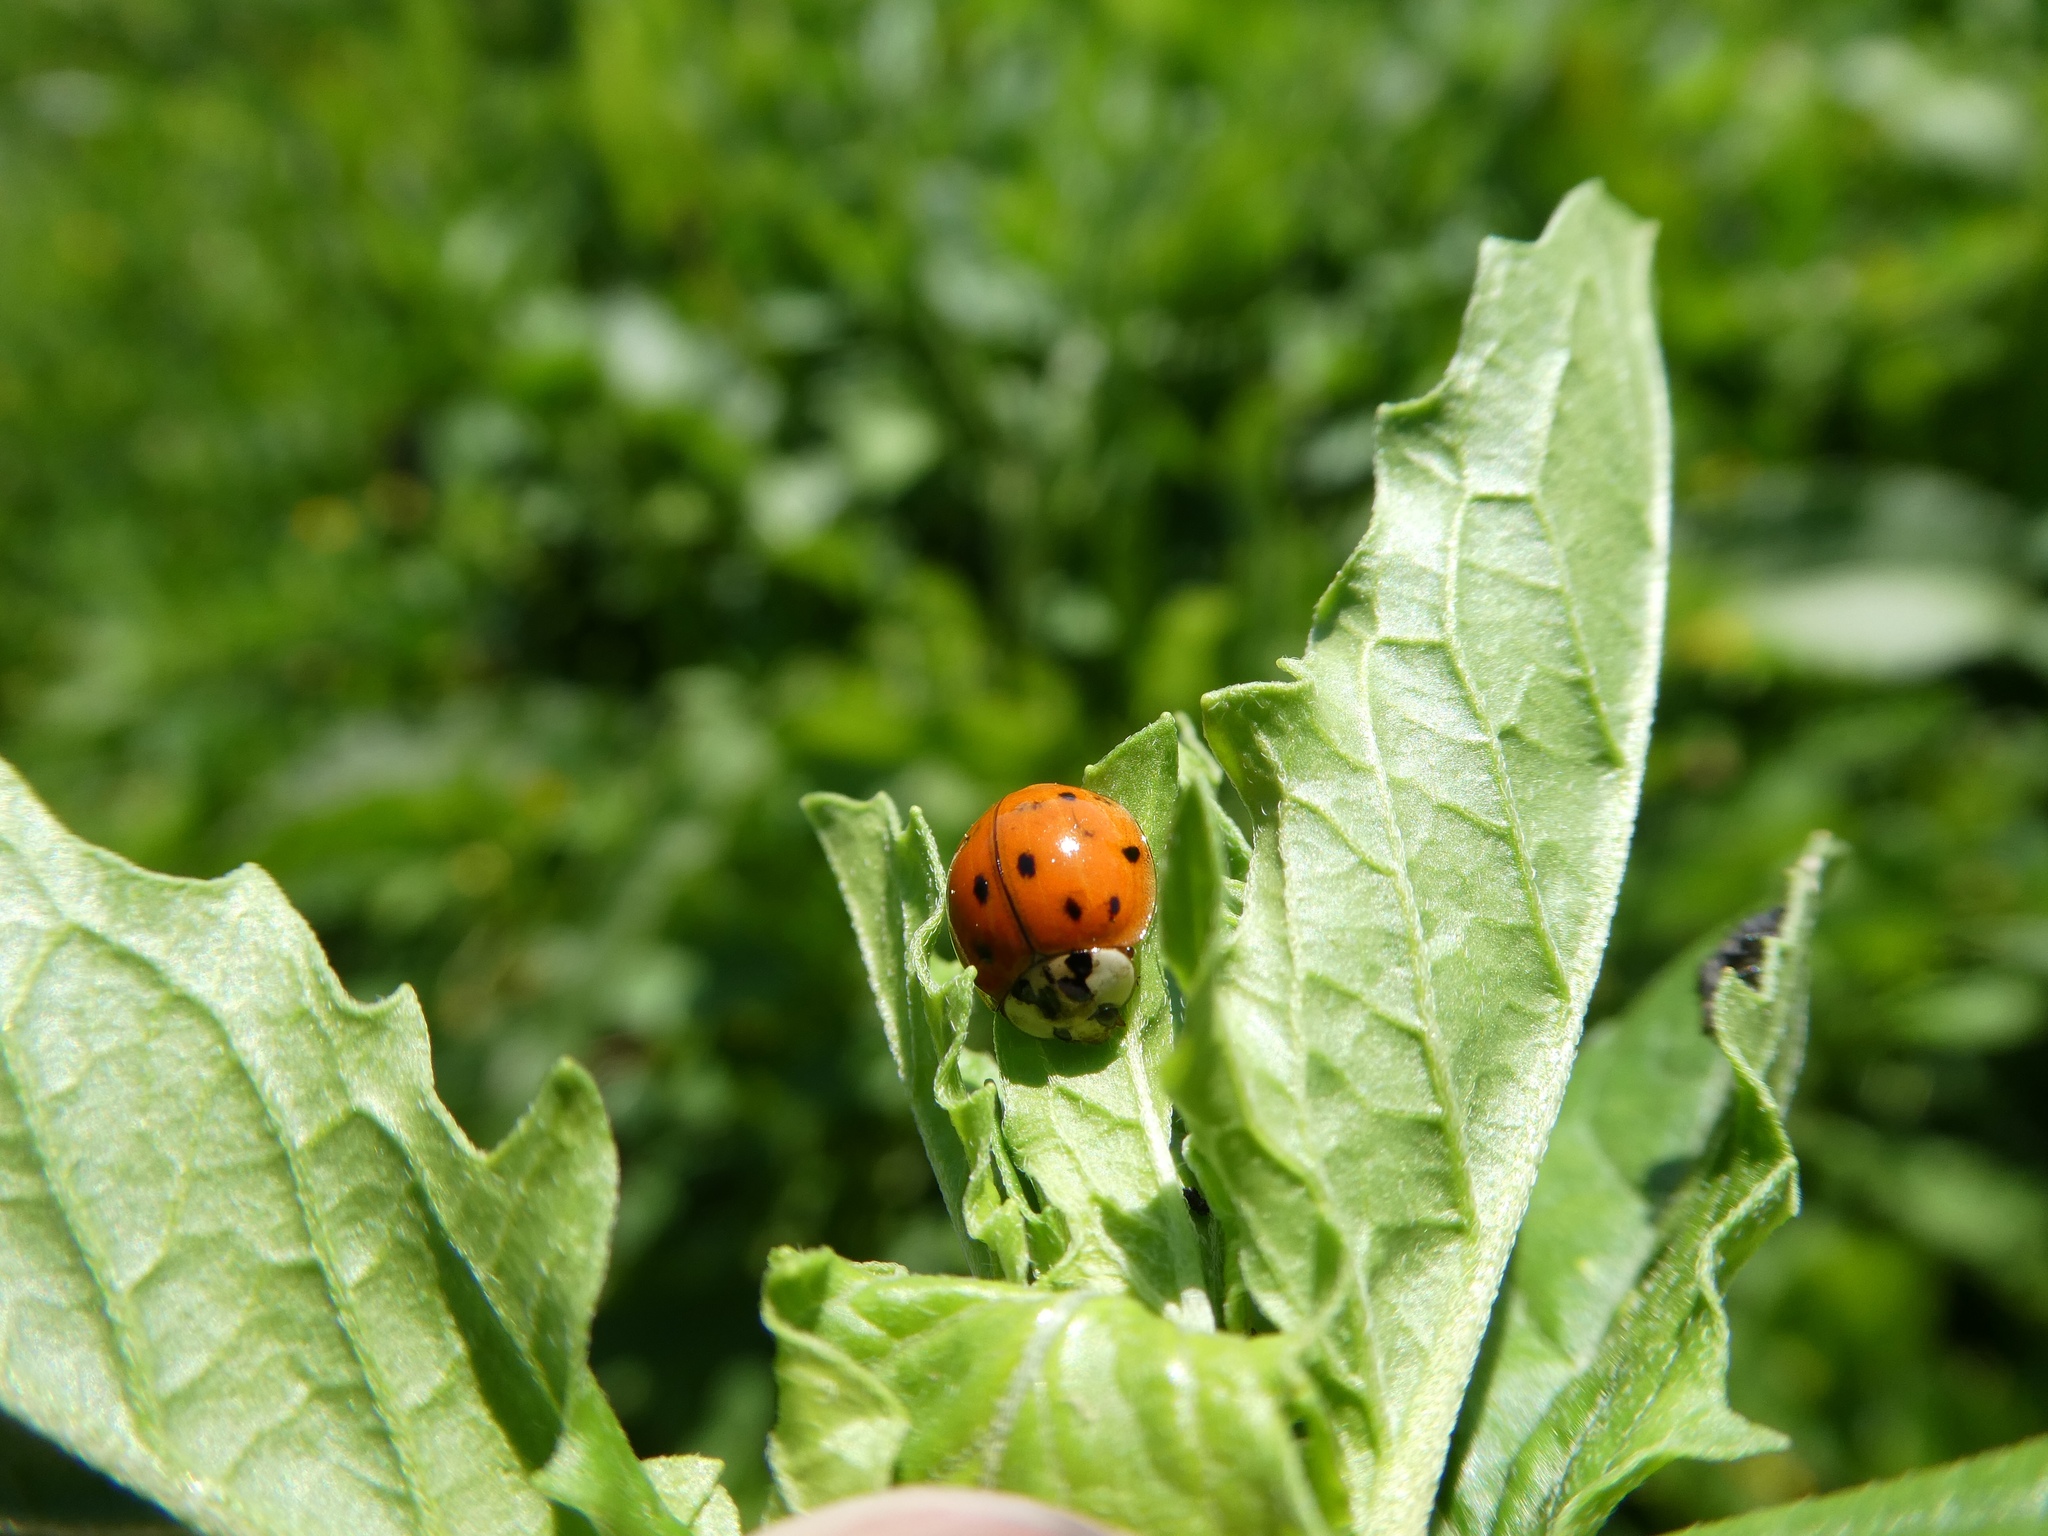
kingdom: Animalia
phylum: Arthropoda
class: Insecta
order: Coleoptera
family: Coccinellidae
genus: Harmonia
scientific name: Harmonia axyridis
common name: Harlequin ladybird
